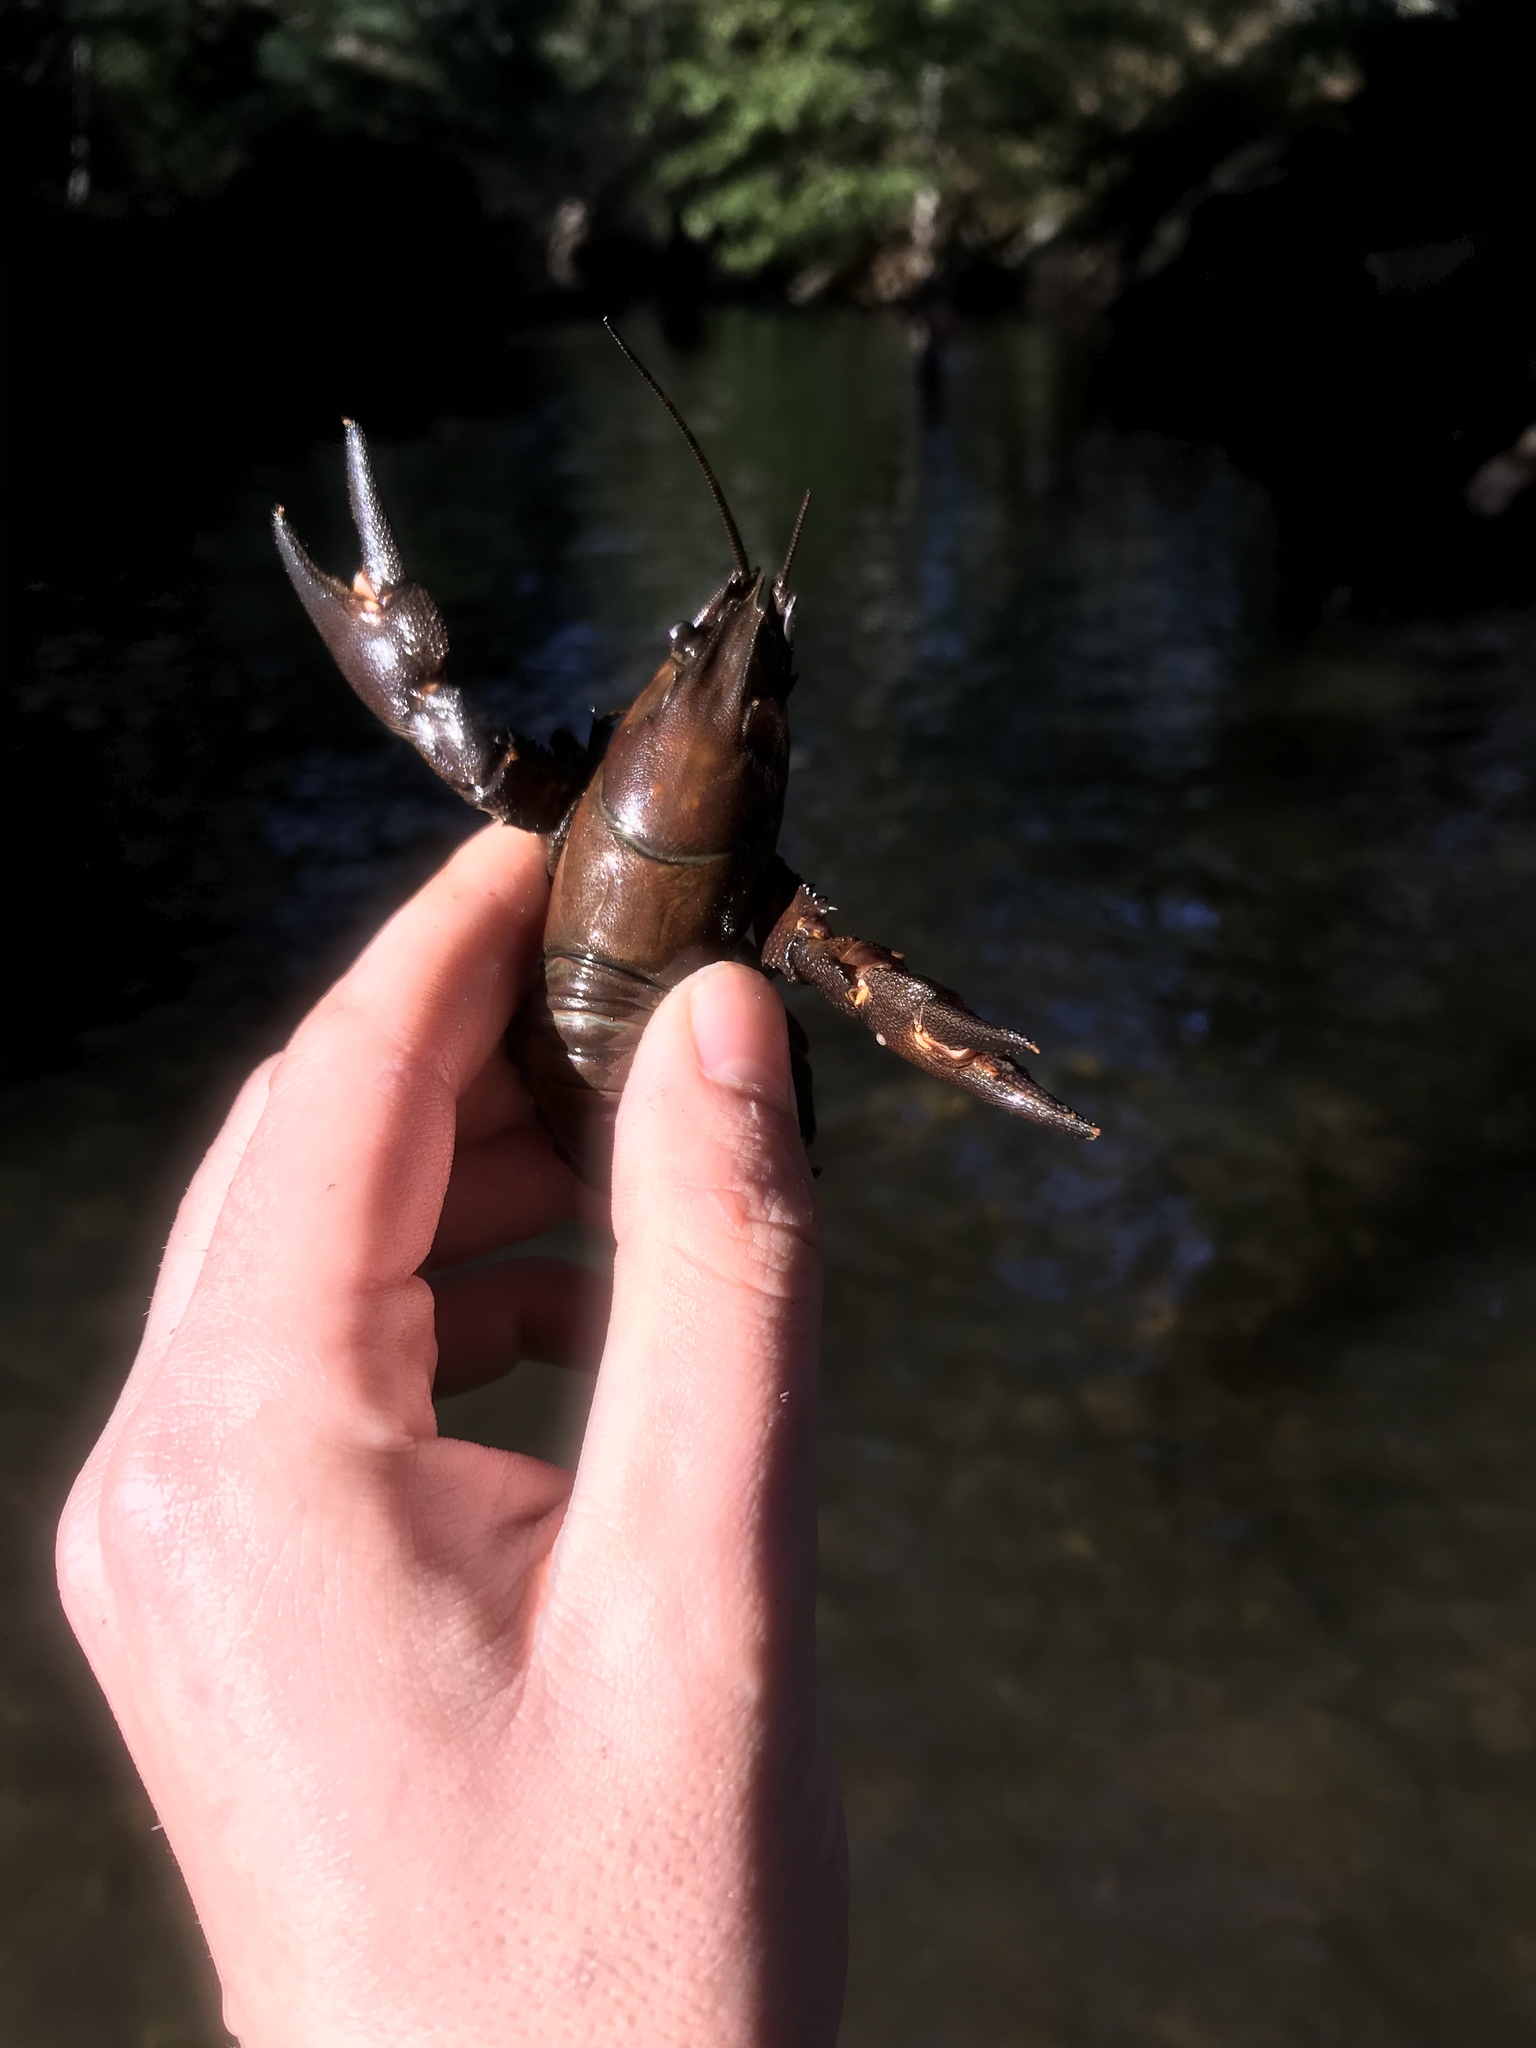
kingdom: Animalia
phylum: Arthropoda
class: Malacostraca
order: Decapoda
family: Astacidae
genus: Pacifastacus
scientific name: Pacifastacus leniusculus
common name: Signal crayfish
